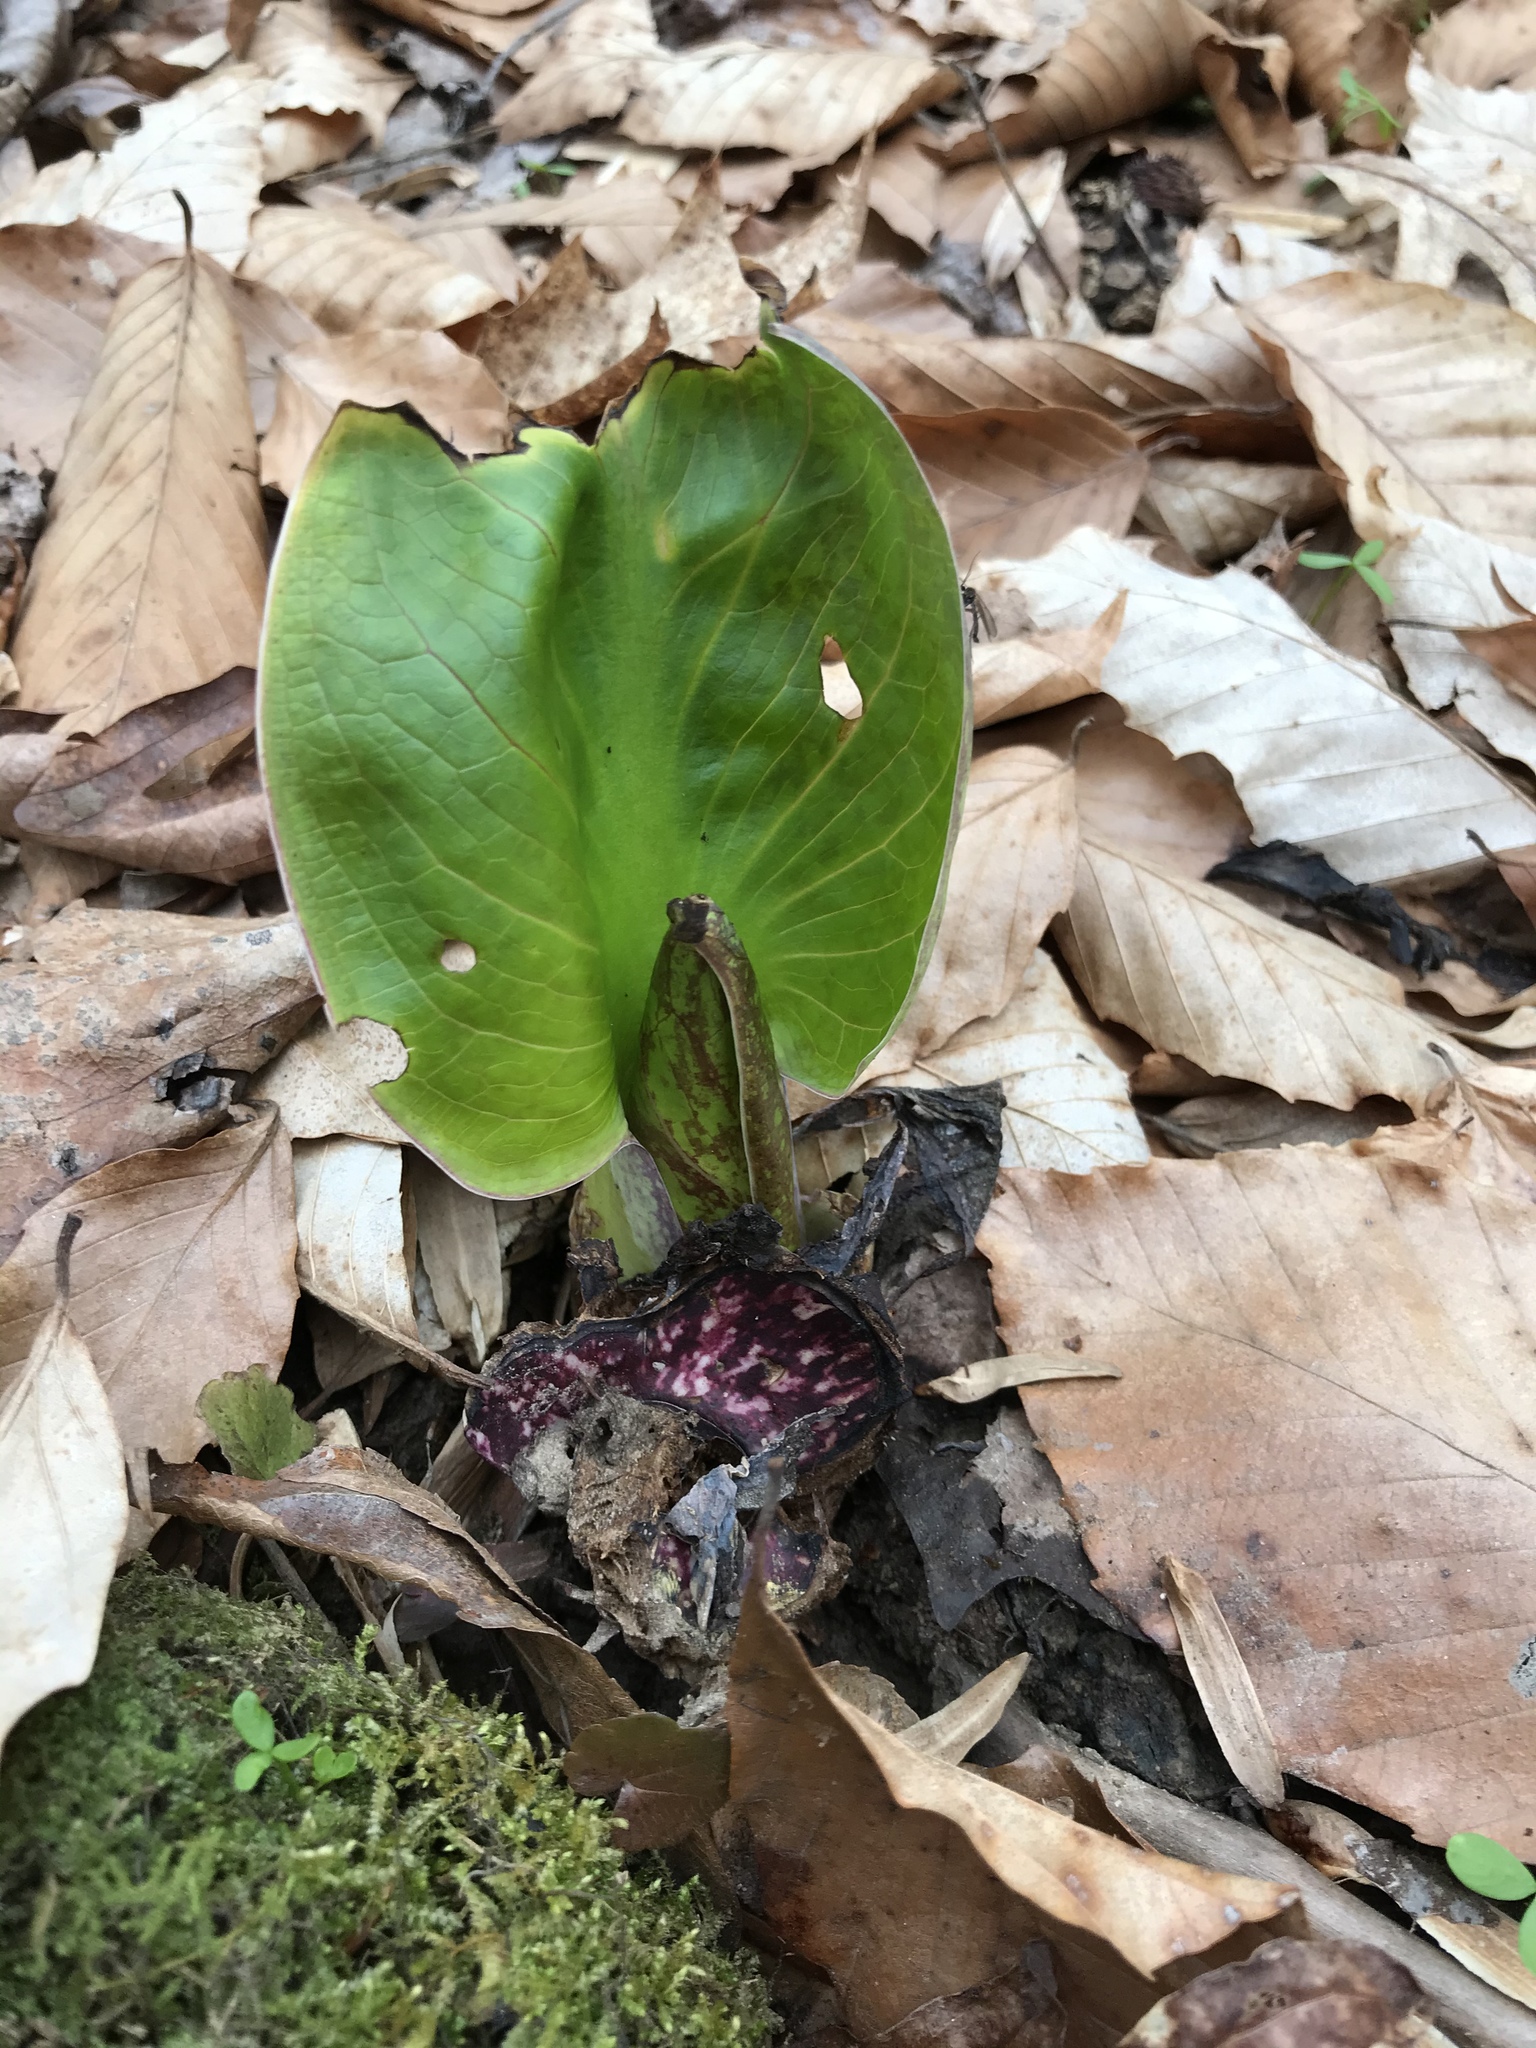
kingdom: Plantae
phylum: Tracheophyta
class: Liliopsida
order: Alismatales
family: Araceae
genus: Symplocarpus
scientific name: Symplocarpus foetidus
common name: Eastern skunk cabbage
